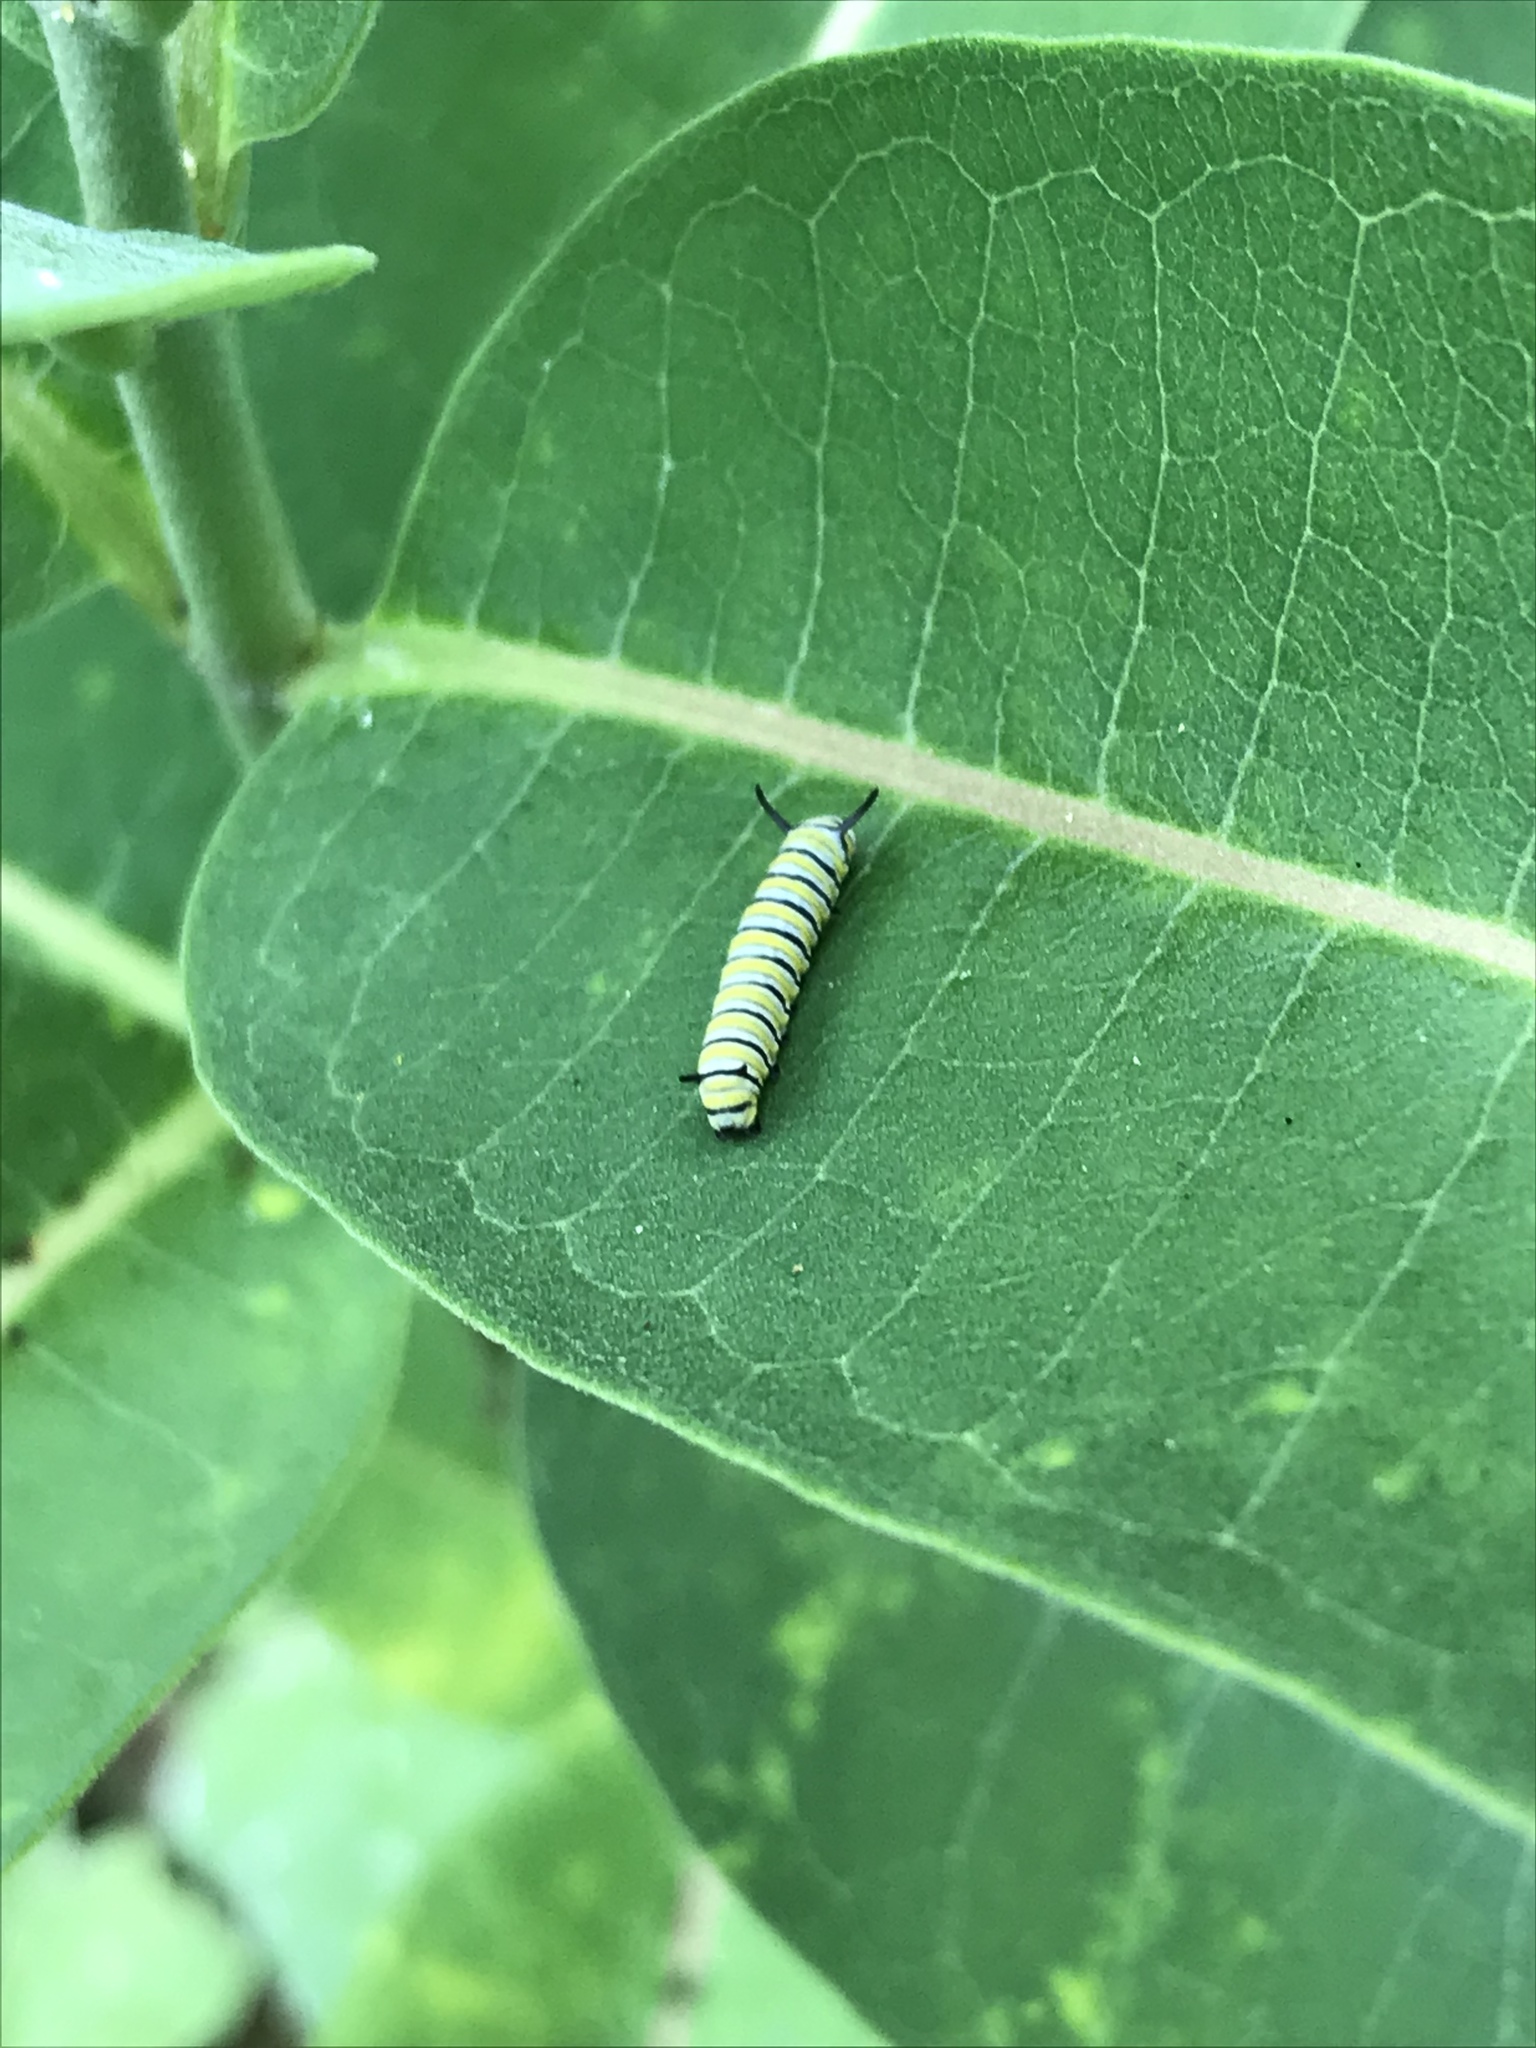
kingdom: Animalia
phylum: Arthropoda
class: Insecta
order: Lepidoptera
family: Nymphalidae
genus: Danaus
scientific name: Danaus plexippus
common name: Monarch
